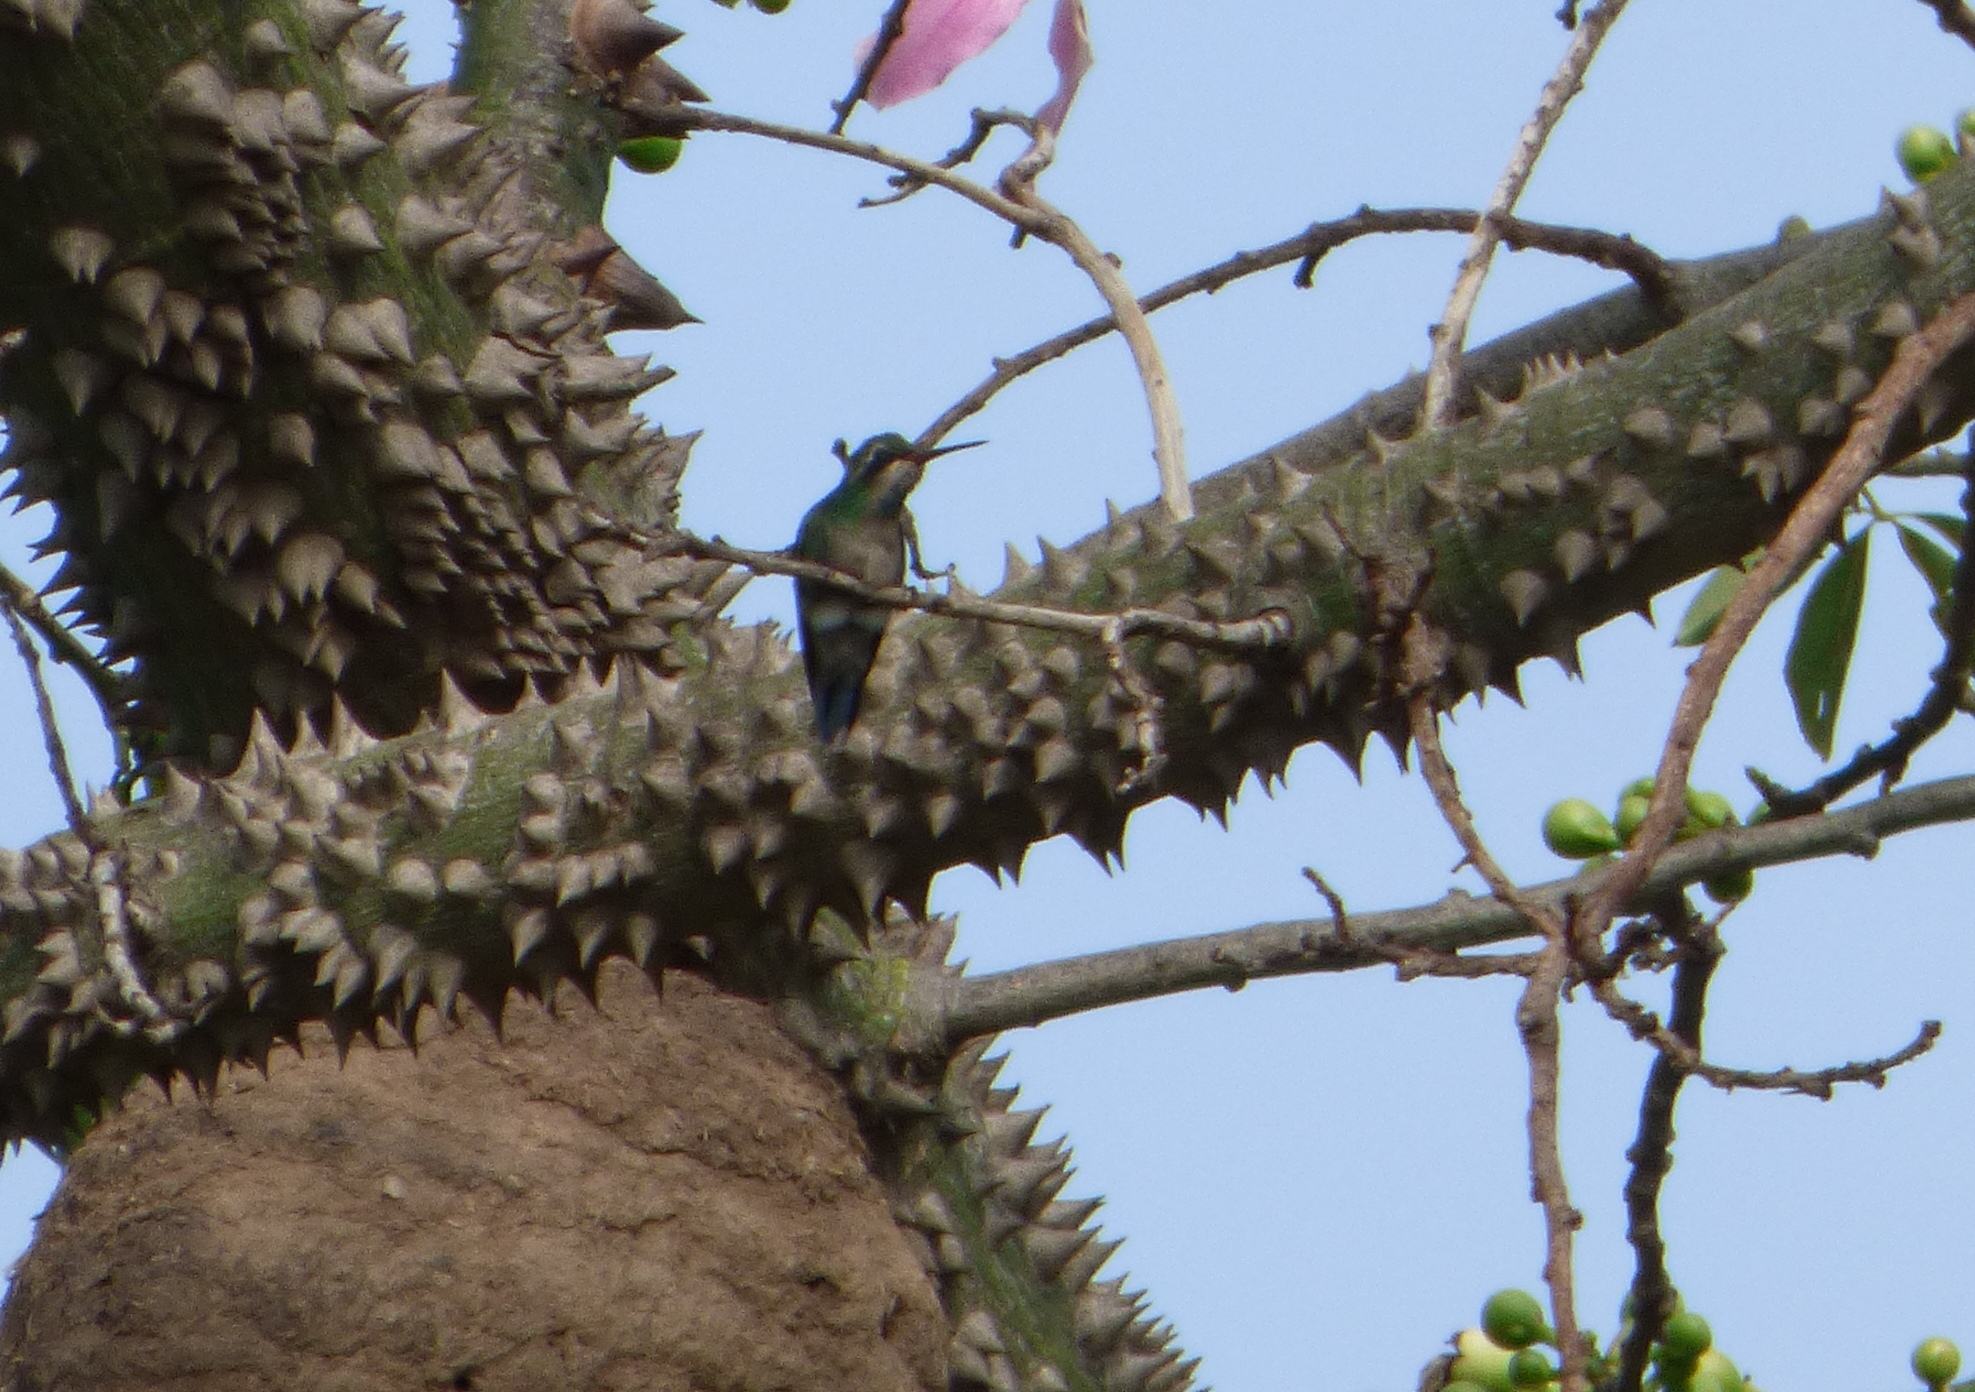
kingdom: Animalia
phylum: Chordata
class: Aves
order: Apodiformes
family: Trochilidae
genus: Chlorostilbon
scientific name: Chlorostilbon lucidus
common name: Glittering-bellied emerald
